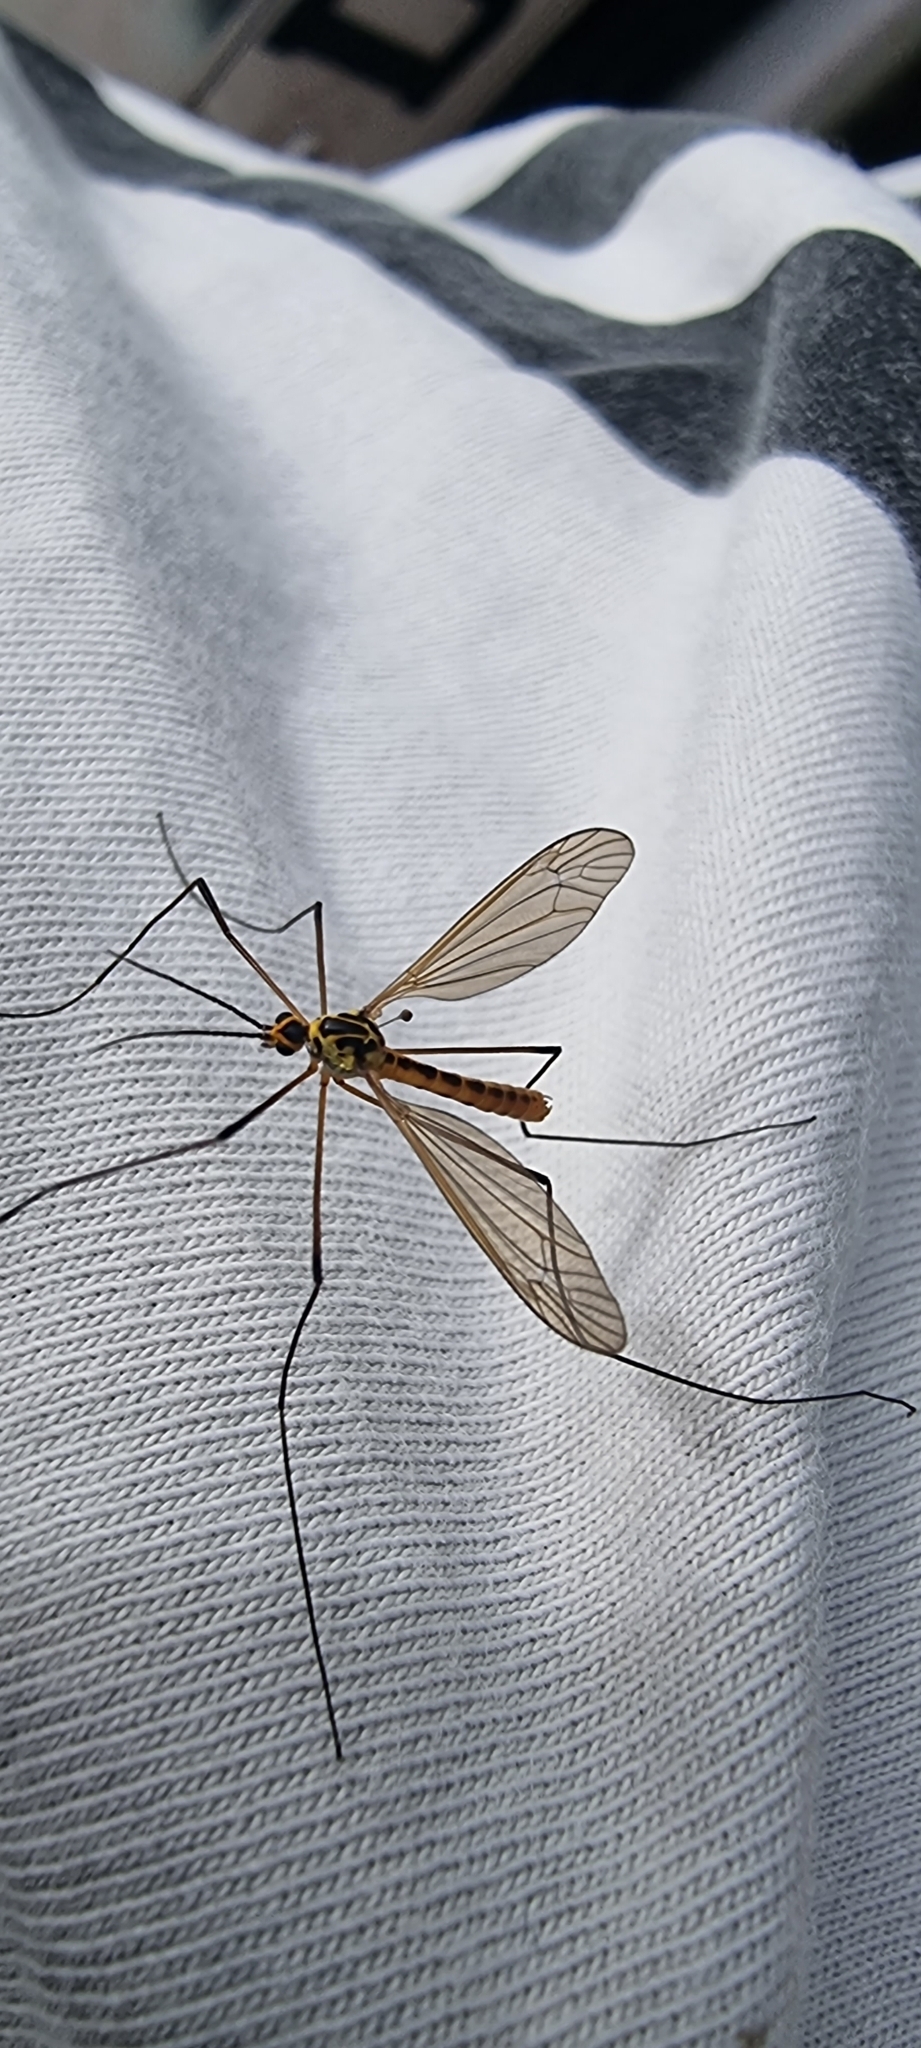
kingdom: Animalia
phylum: Arthropoda
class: Insecta
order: Diptera
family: Tipulidae
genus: Nephrotoma
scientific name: Nephrotoma flavescens
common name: Tiger cranefly
